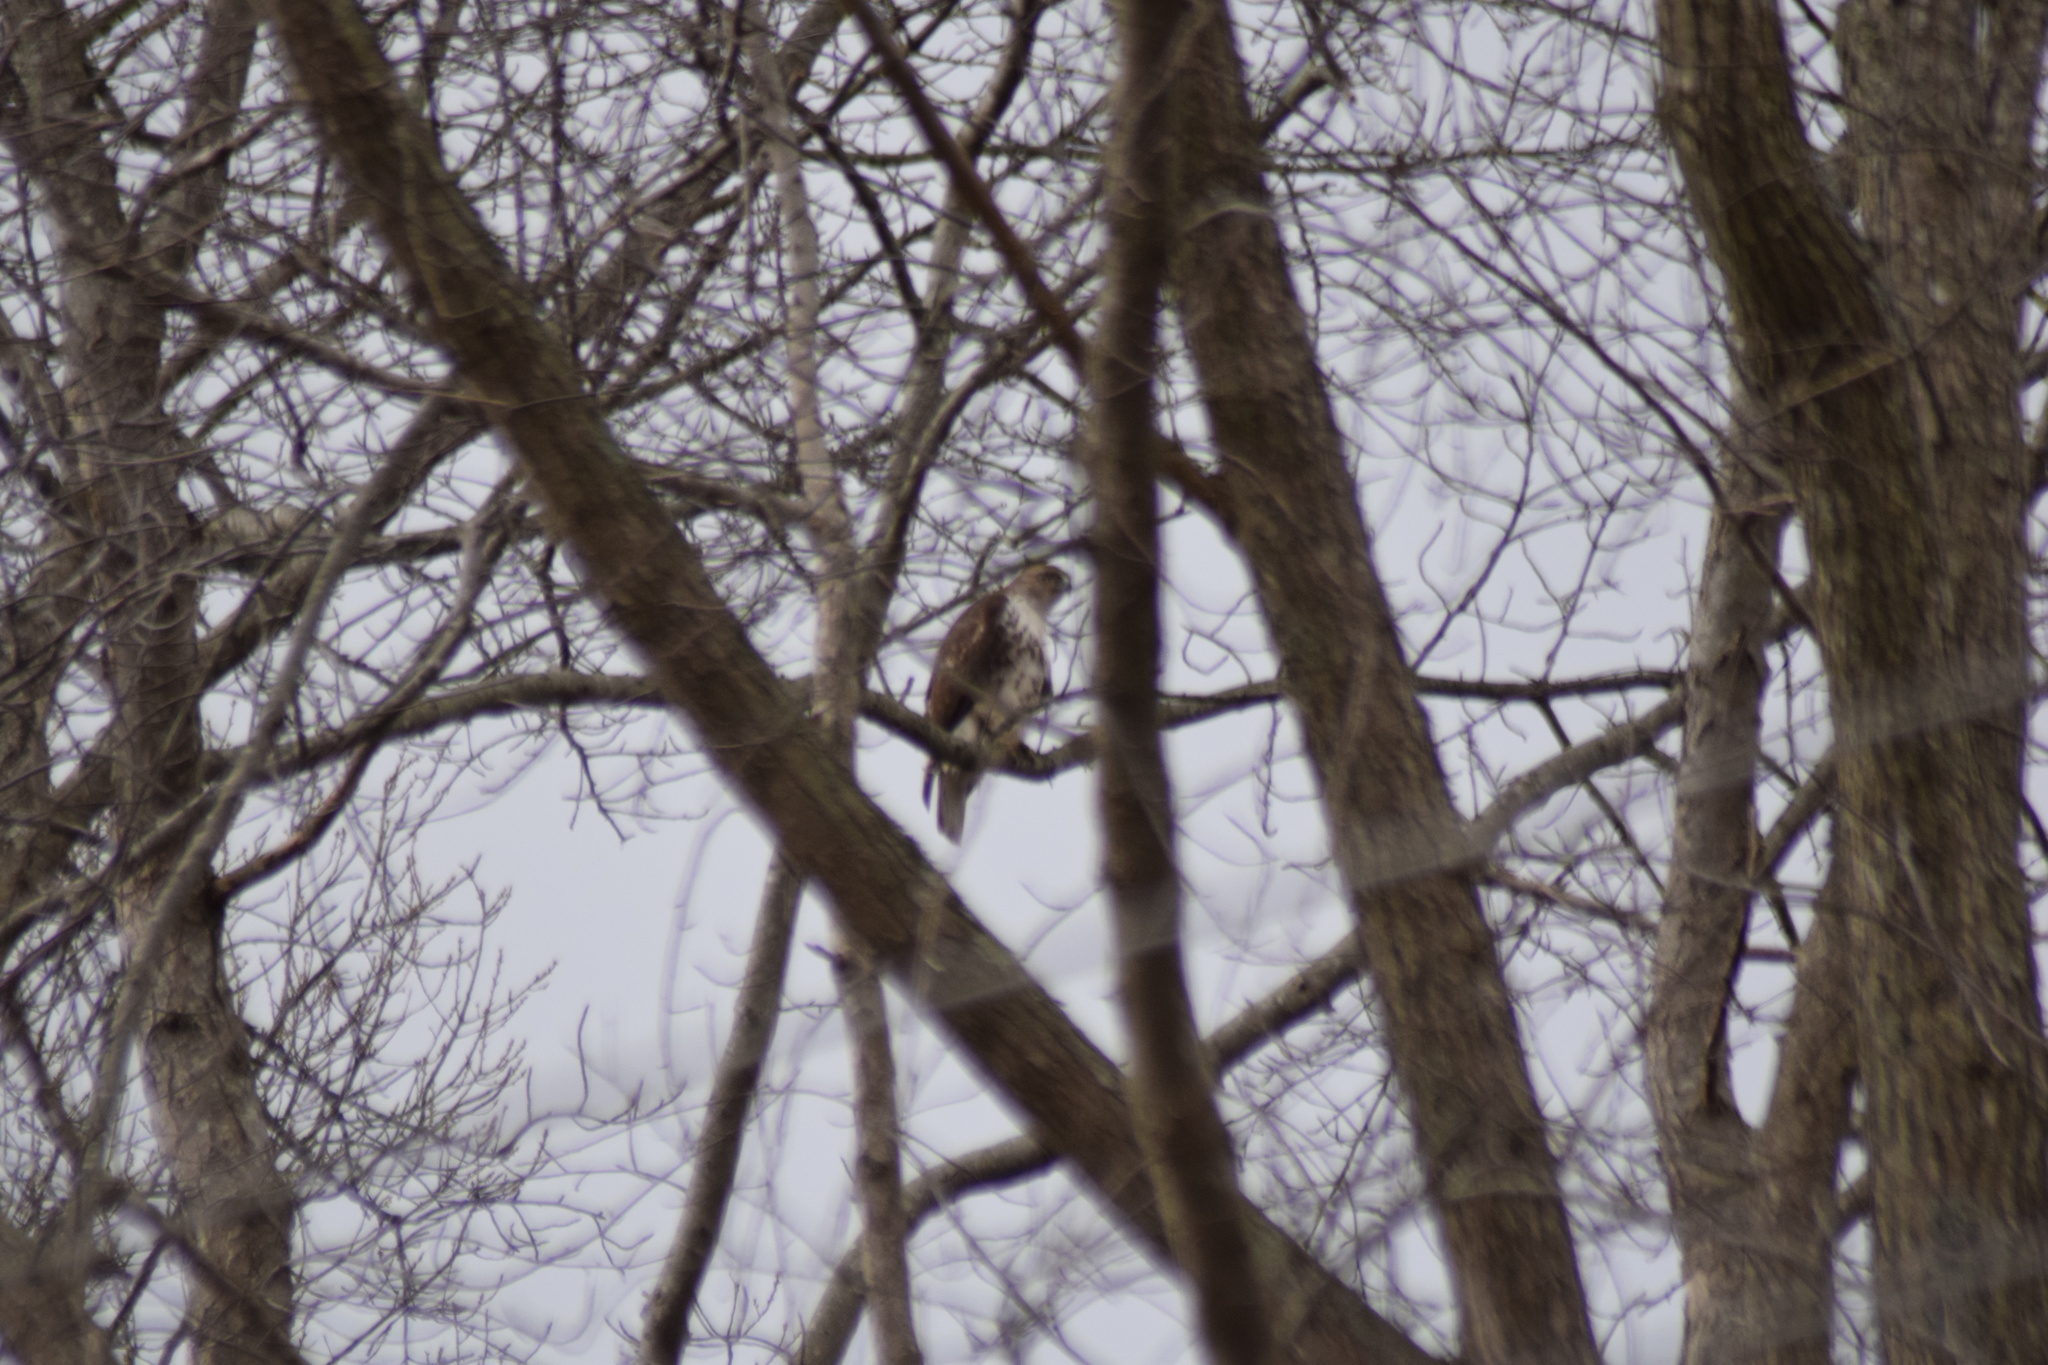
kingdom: Animalia
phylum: Chordata
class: Aves
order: Accipitriformes
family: Accipitridae
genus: Buteo
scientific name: Buteo jamaicensis
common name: Red-tailed hawk
